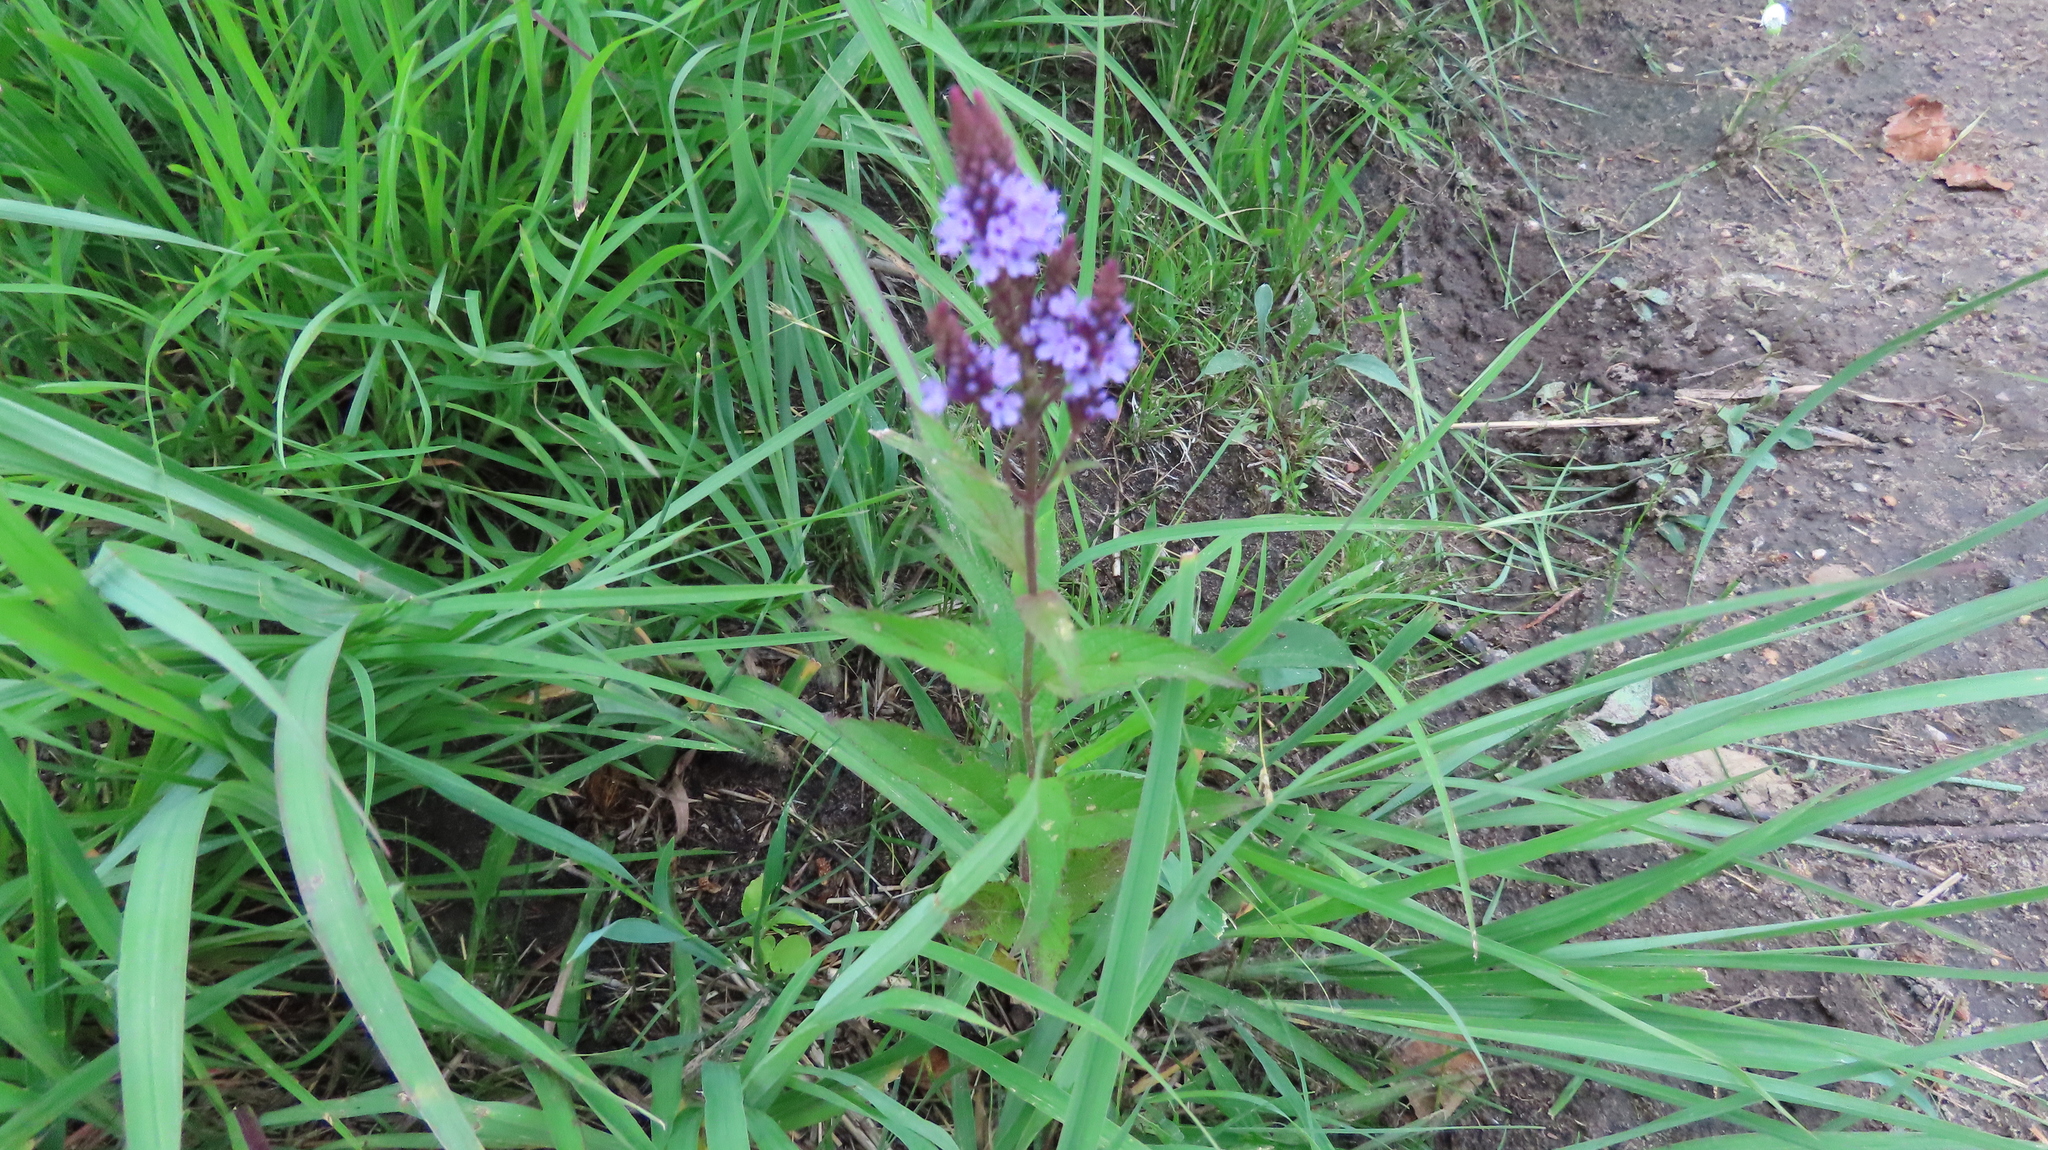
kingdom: Plantae
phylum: Tracheophyta
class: Magnoliopsida
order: Lamiales
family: Verbenaceae
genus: Verbena
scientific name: Verbena hastata
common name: American blue vervain
